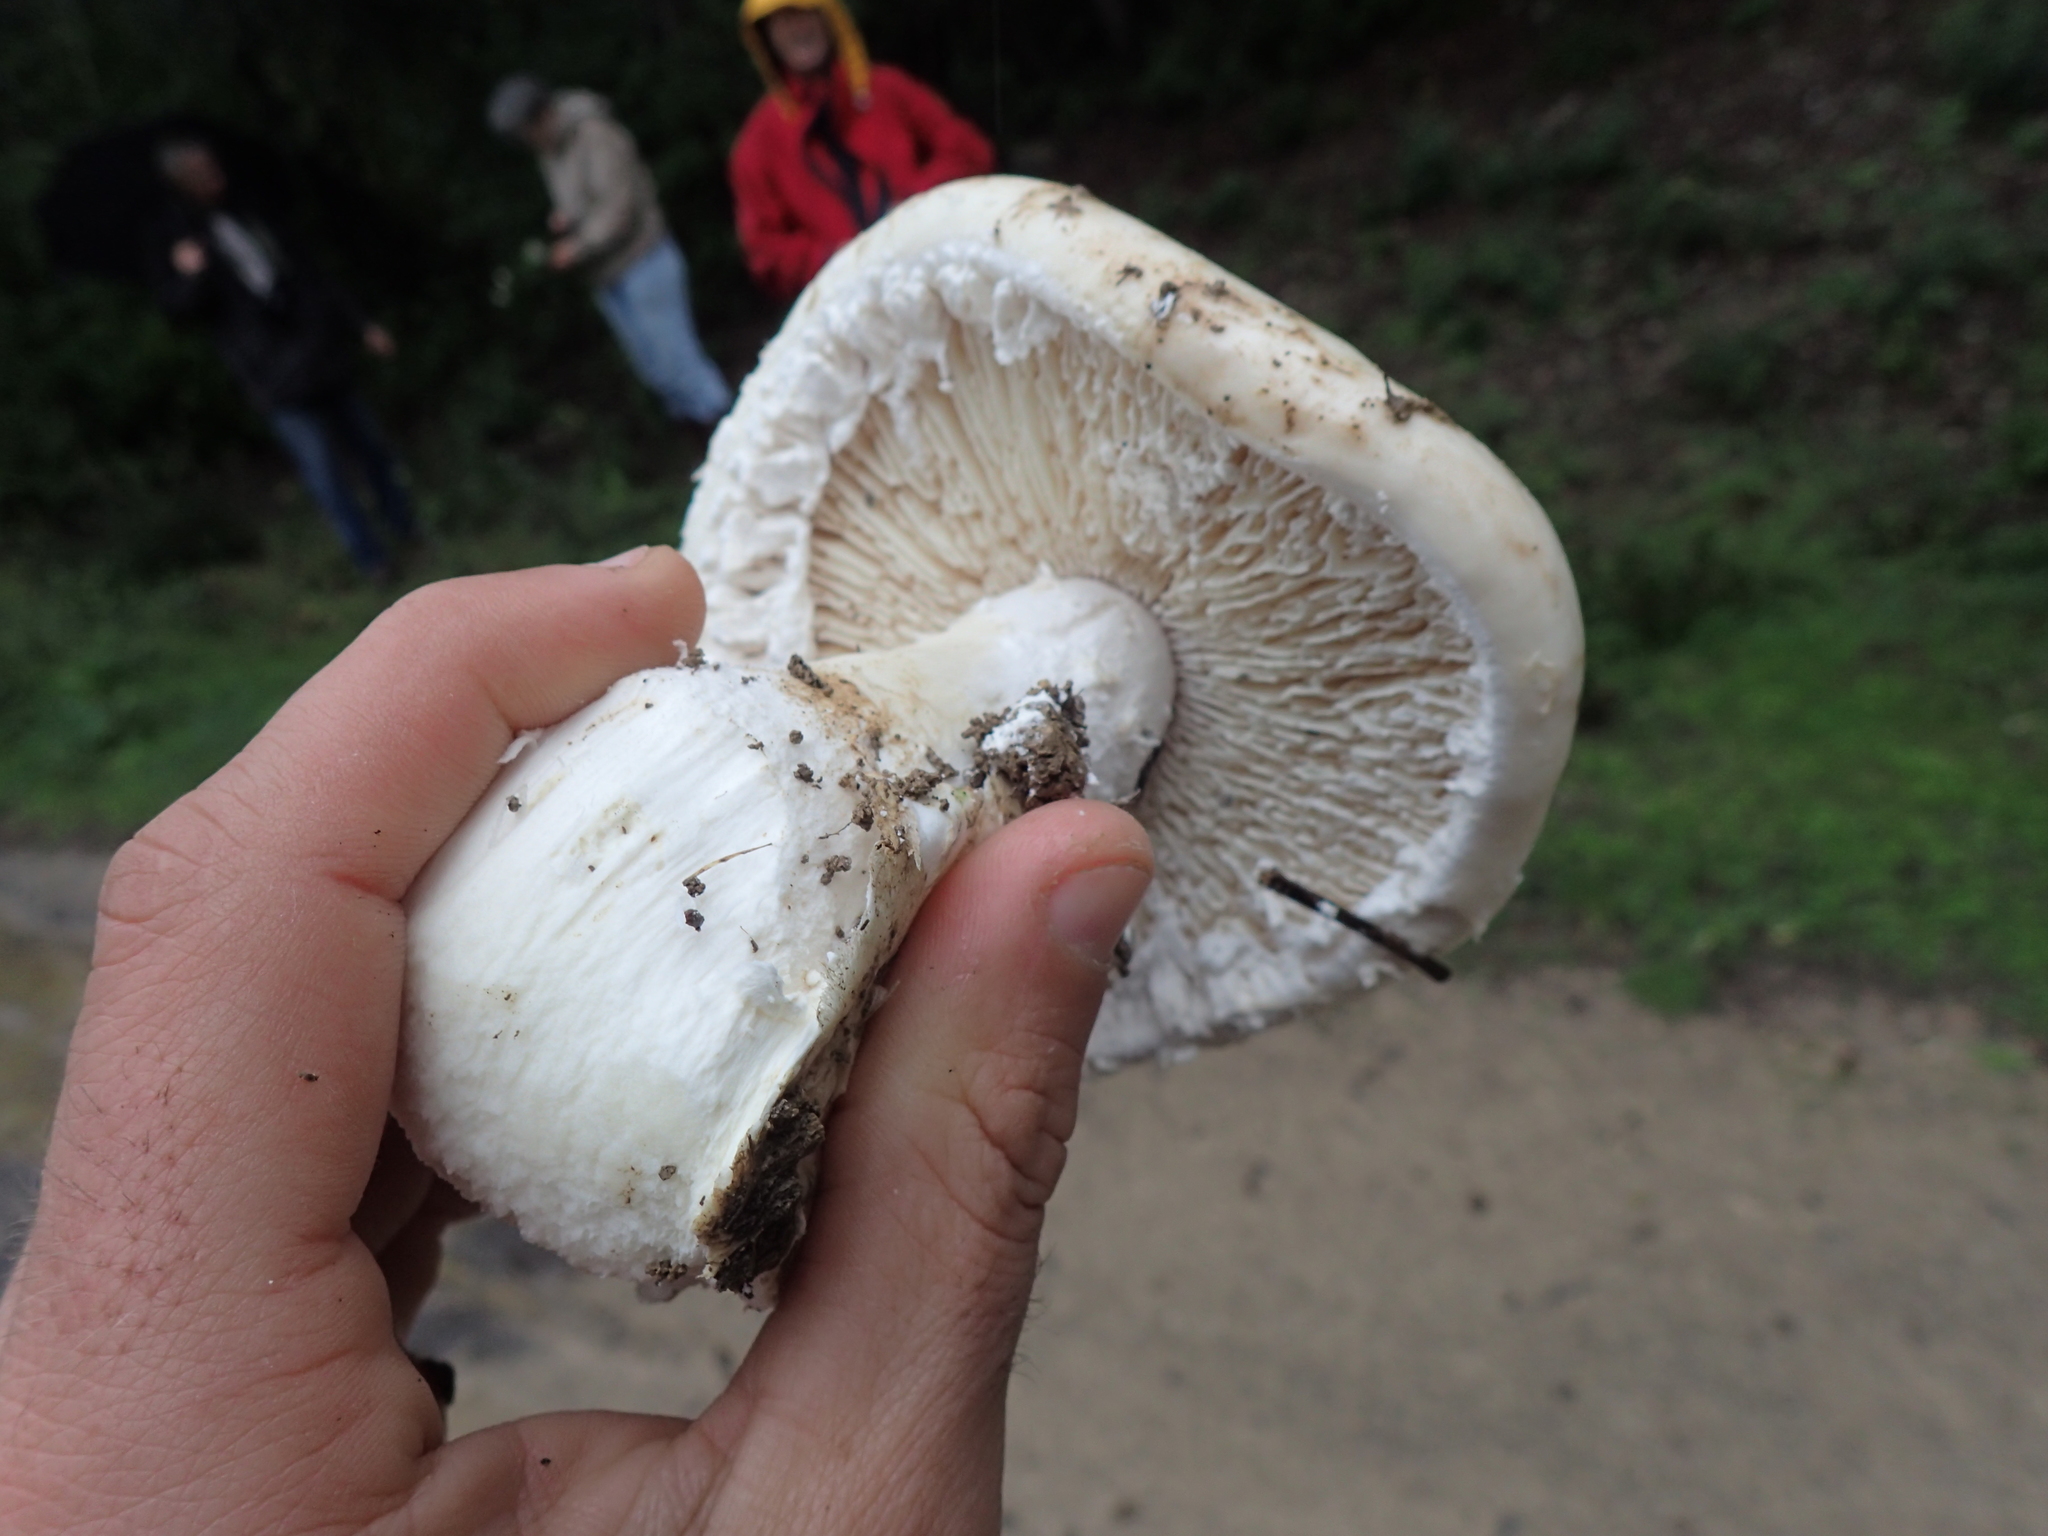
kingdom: Fungi
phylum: Basidiomycota
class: Agaricomycetes
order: Agaricales
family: Amanitaceae
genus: Amanita
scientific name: Amanita ovoidea
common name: Bearded amanita
